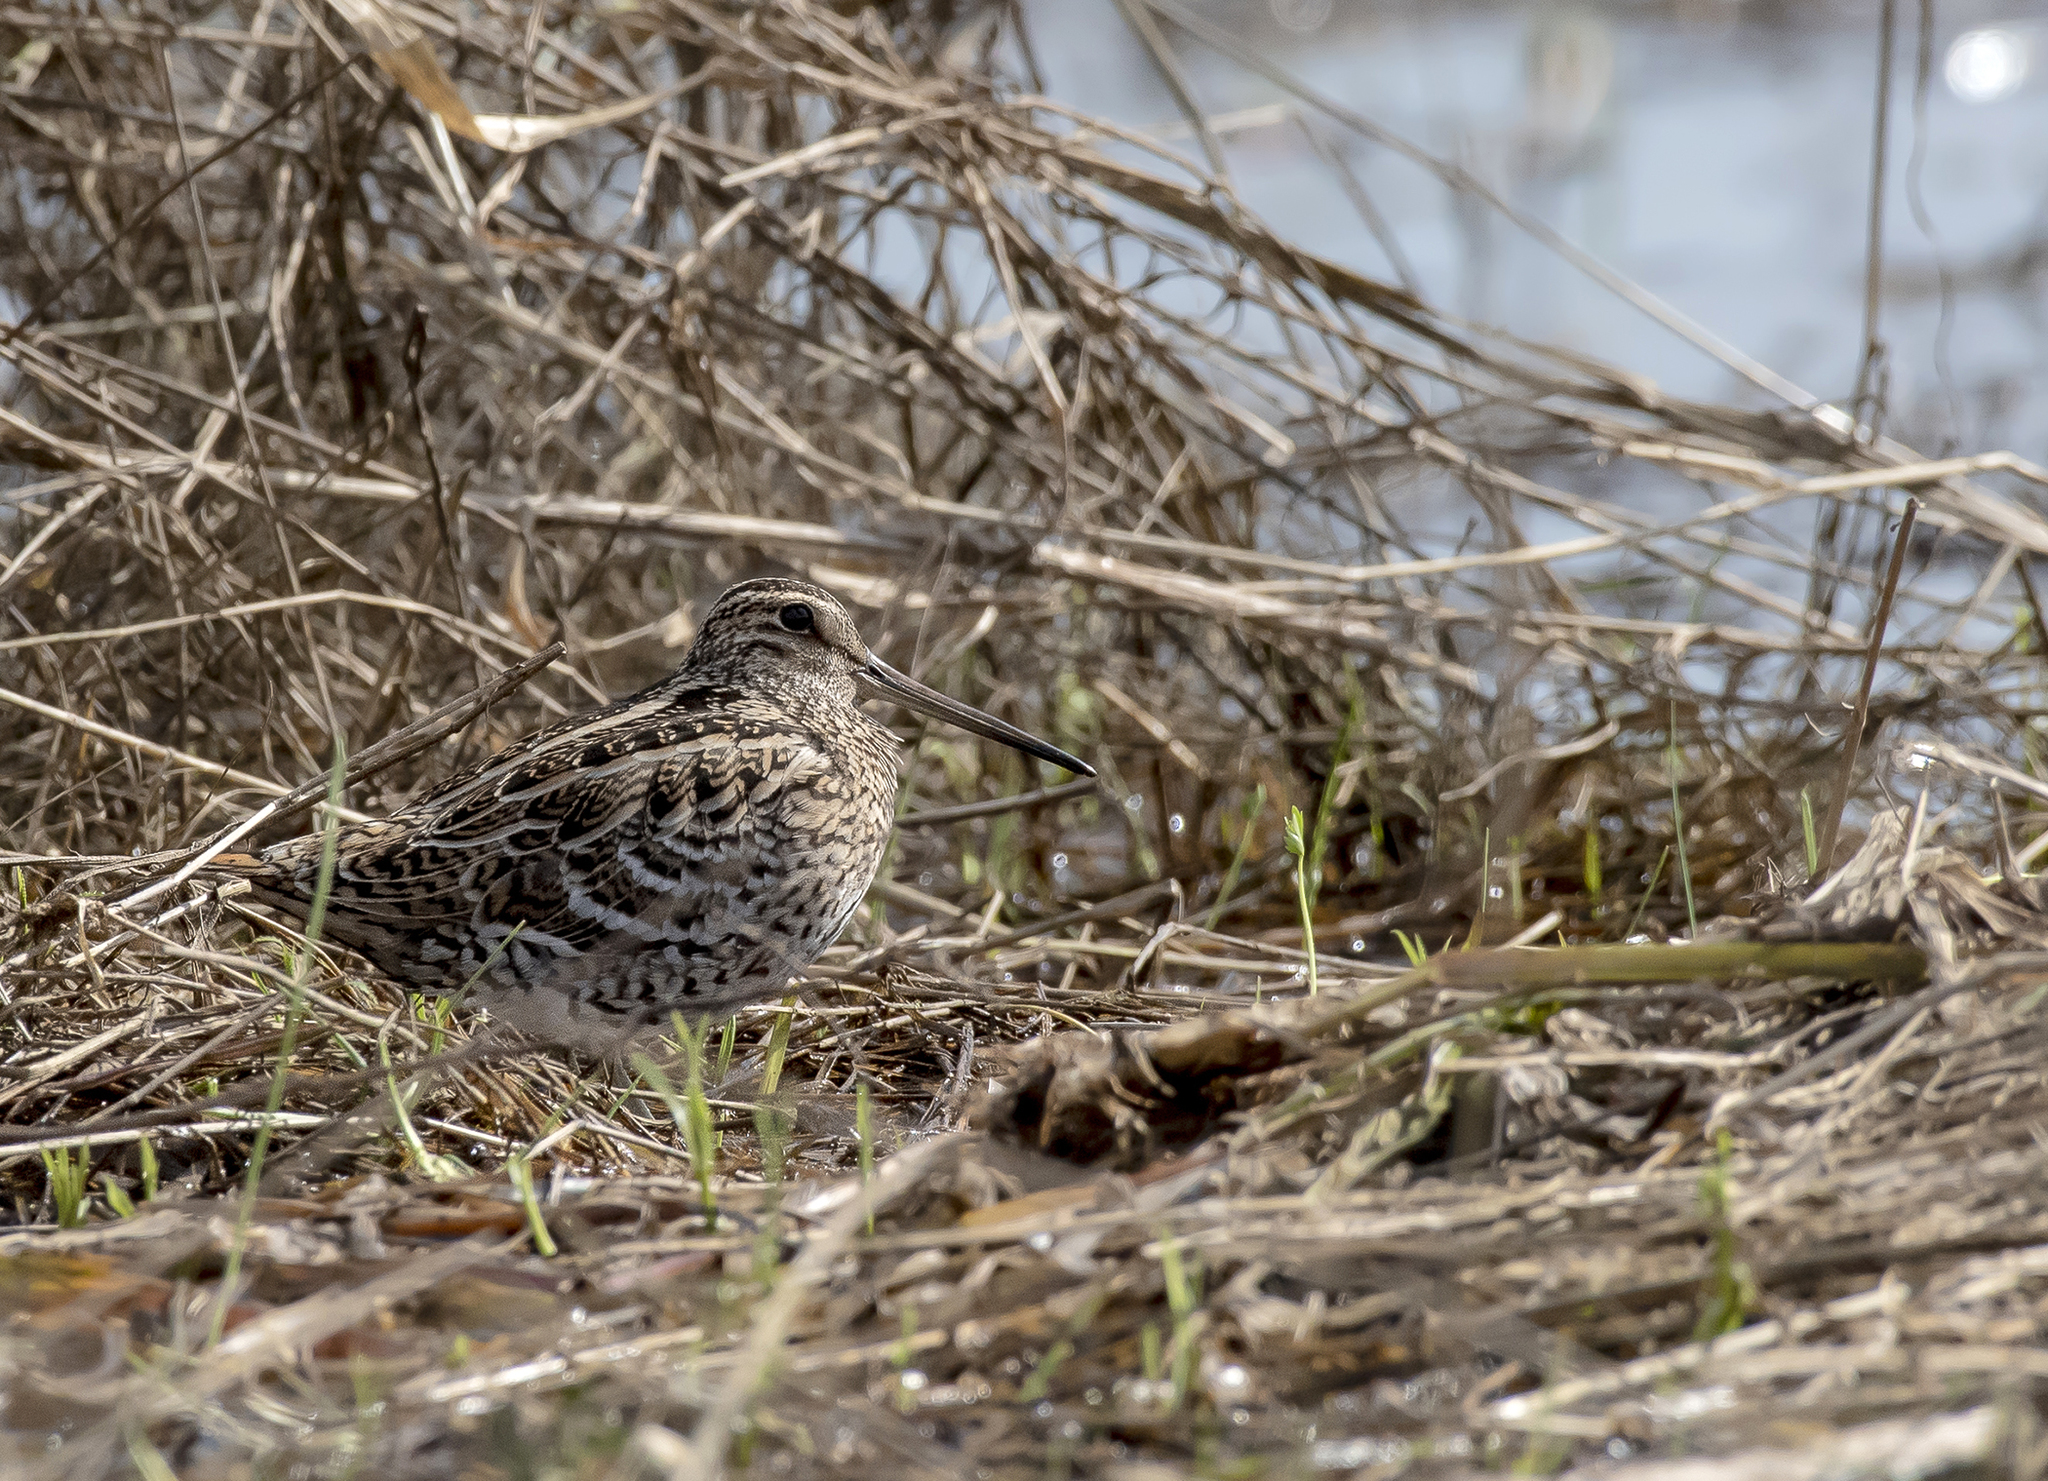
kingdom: Animalia
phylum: Chordata
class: Aves
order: Charadriiformes
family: Scolopacidae
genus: Gallinago
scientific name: Gallinago media
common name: Great snipe
